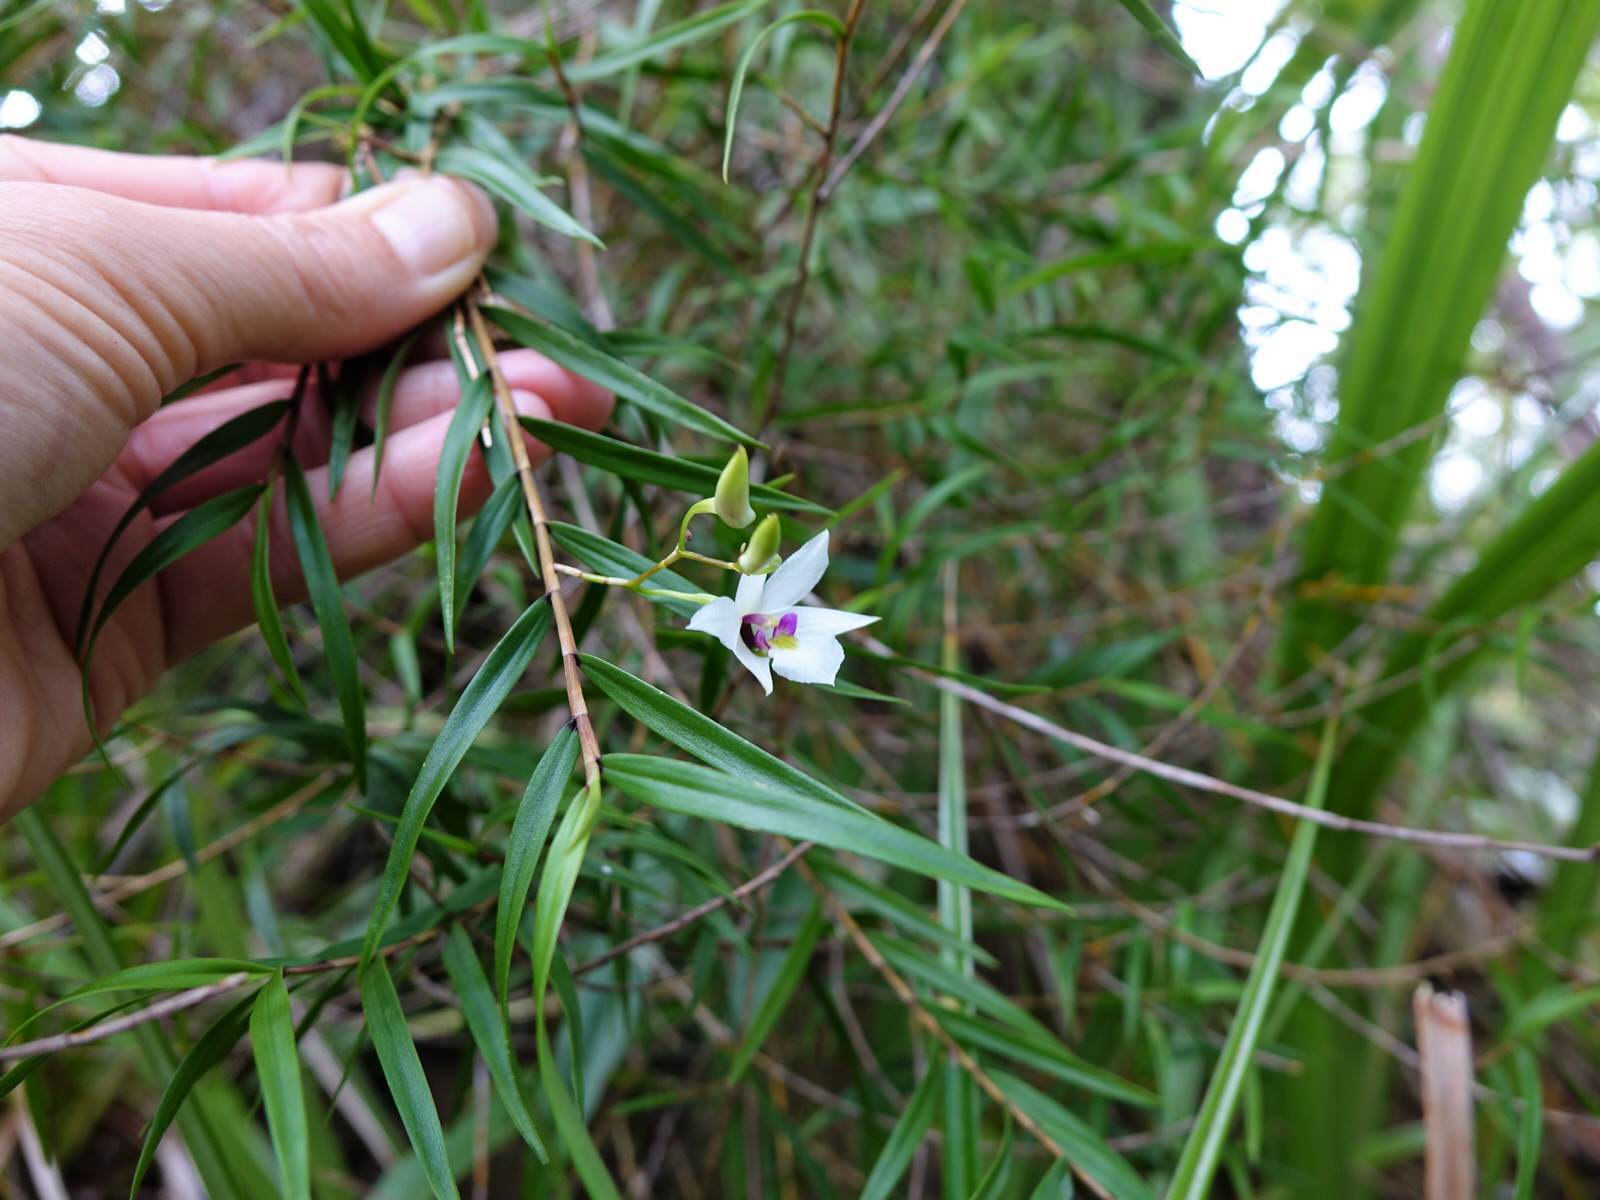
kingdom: Plantae
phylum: Tracheophyta
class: Liliopsida
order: Asparagales
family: Orchidaceae
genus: Dendrobium
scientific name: Dendrobium cunninghamii
